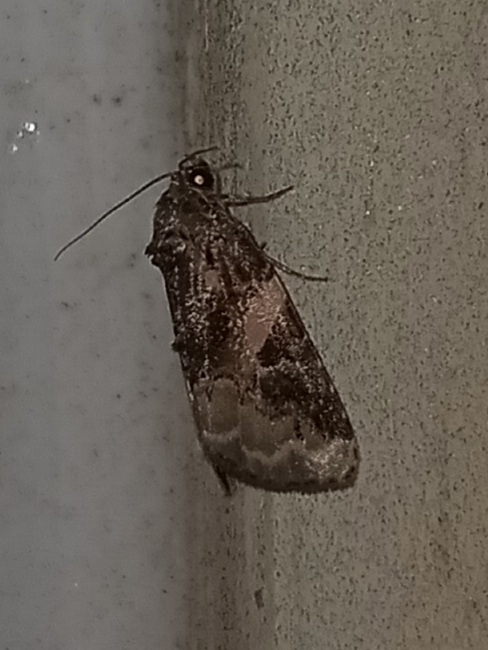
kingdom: Animalia
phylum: Arthropoda
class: Insecta
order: Lepidoptera
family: Noctuidae
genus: Pseudeustrotia
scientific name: Pseudeustrotia carneola
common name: Pink-barred lithacodia moth
